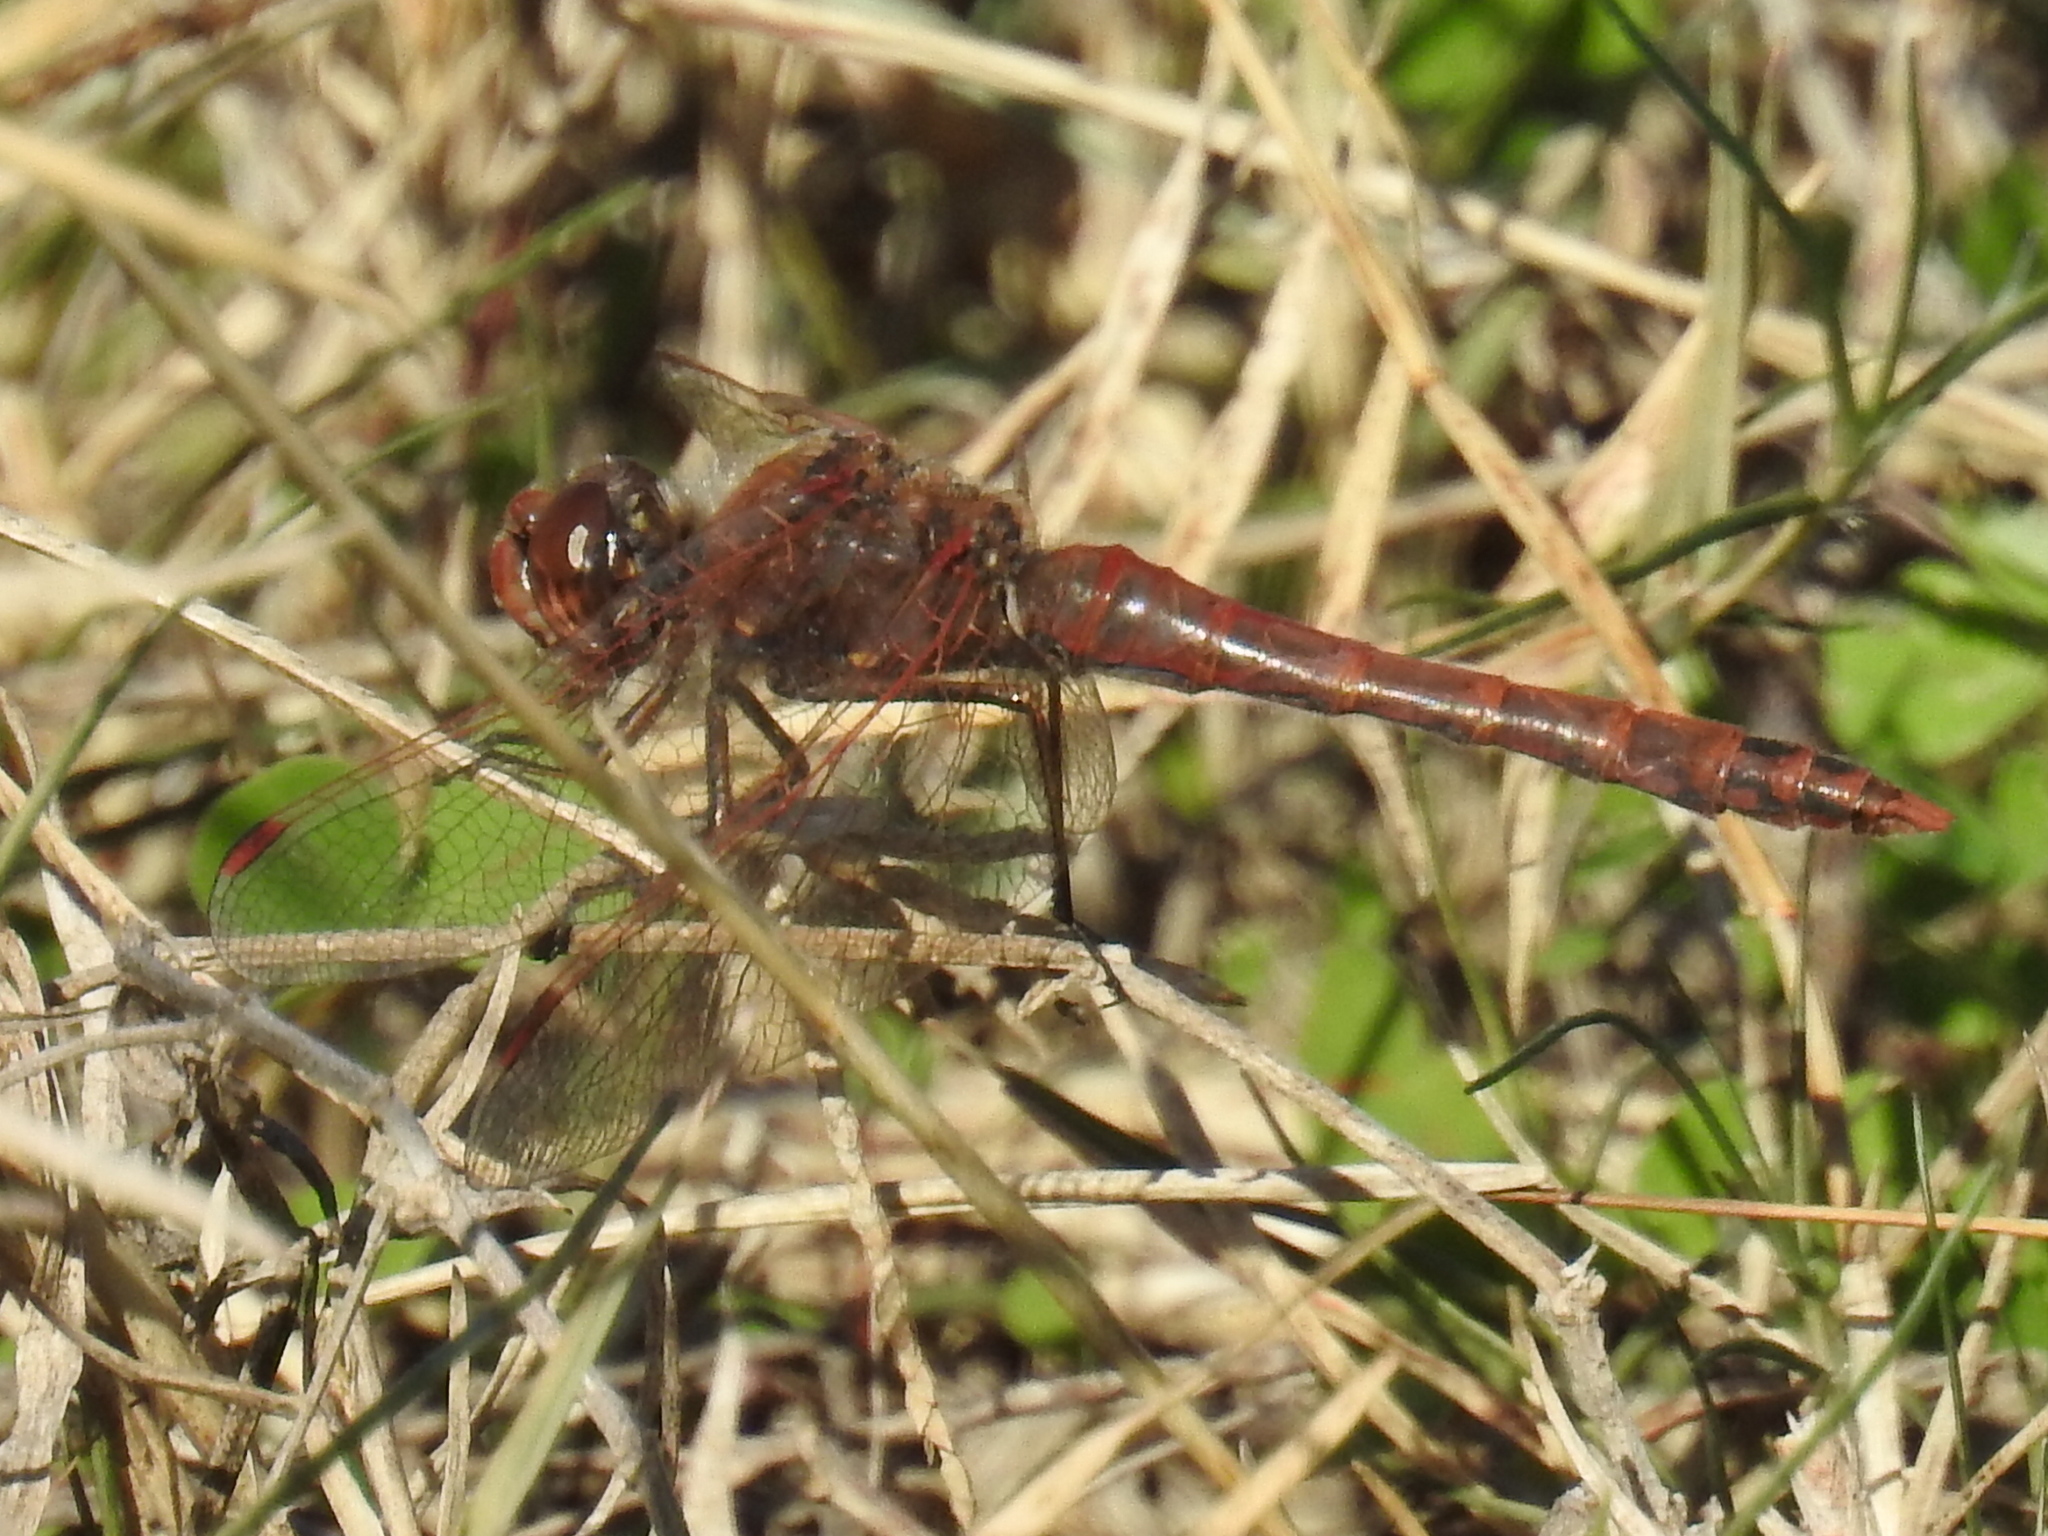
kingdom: Animalia
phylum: Arthropoda
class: Insecta
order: Odonata
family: Libellulidae
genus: Sympetrum
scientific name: Sympetrum corruptum
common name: Variegated meadowhawk
